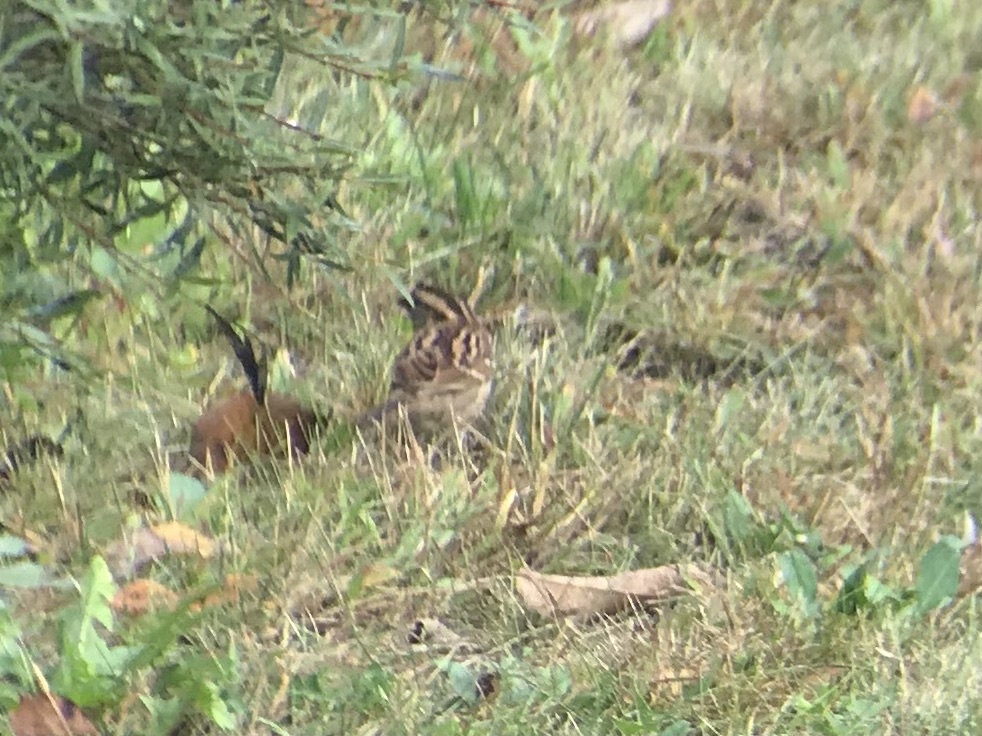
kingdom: Animalia
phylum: Chordata
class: Aves
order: Passeriformes
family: Passerellidae
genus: Zonotrichia
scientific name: Zonotrichia albicollis
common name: White-throated sparrow
